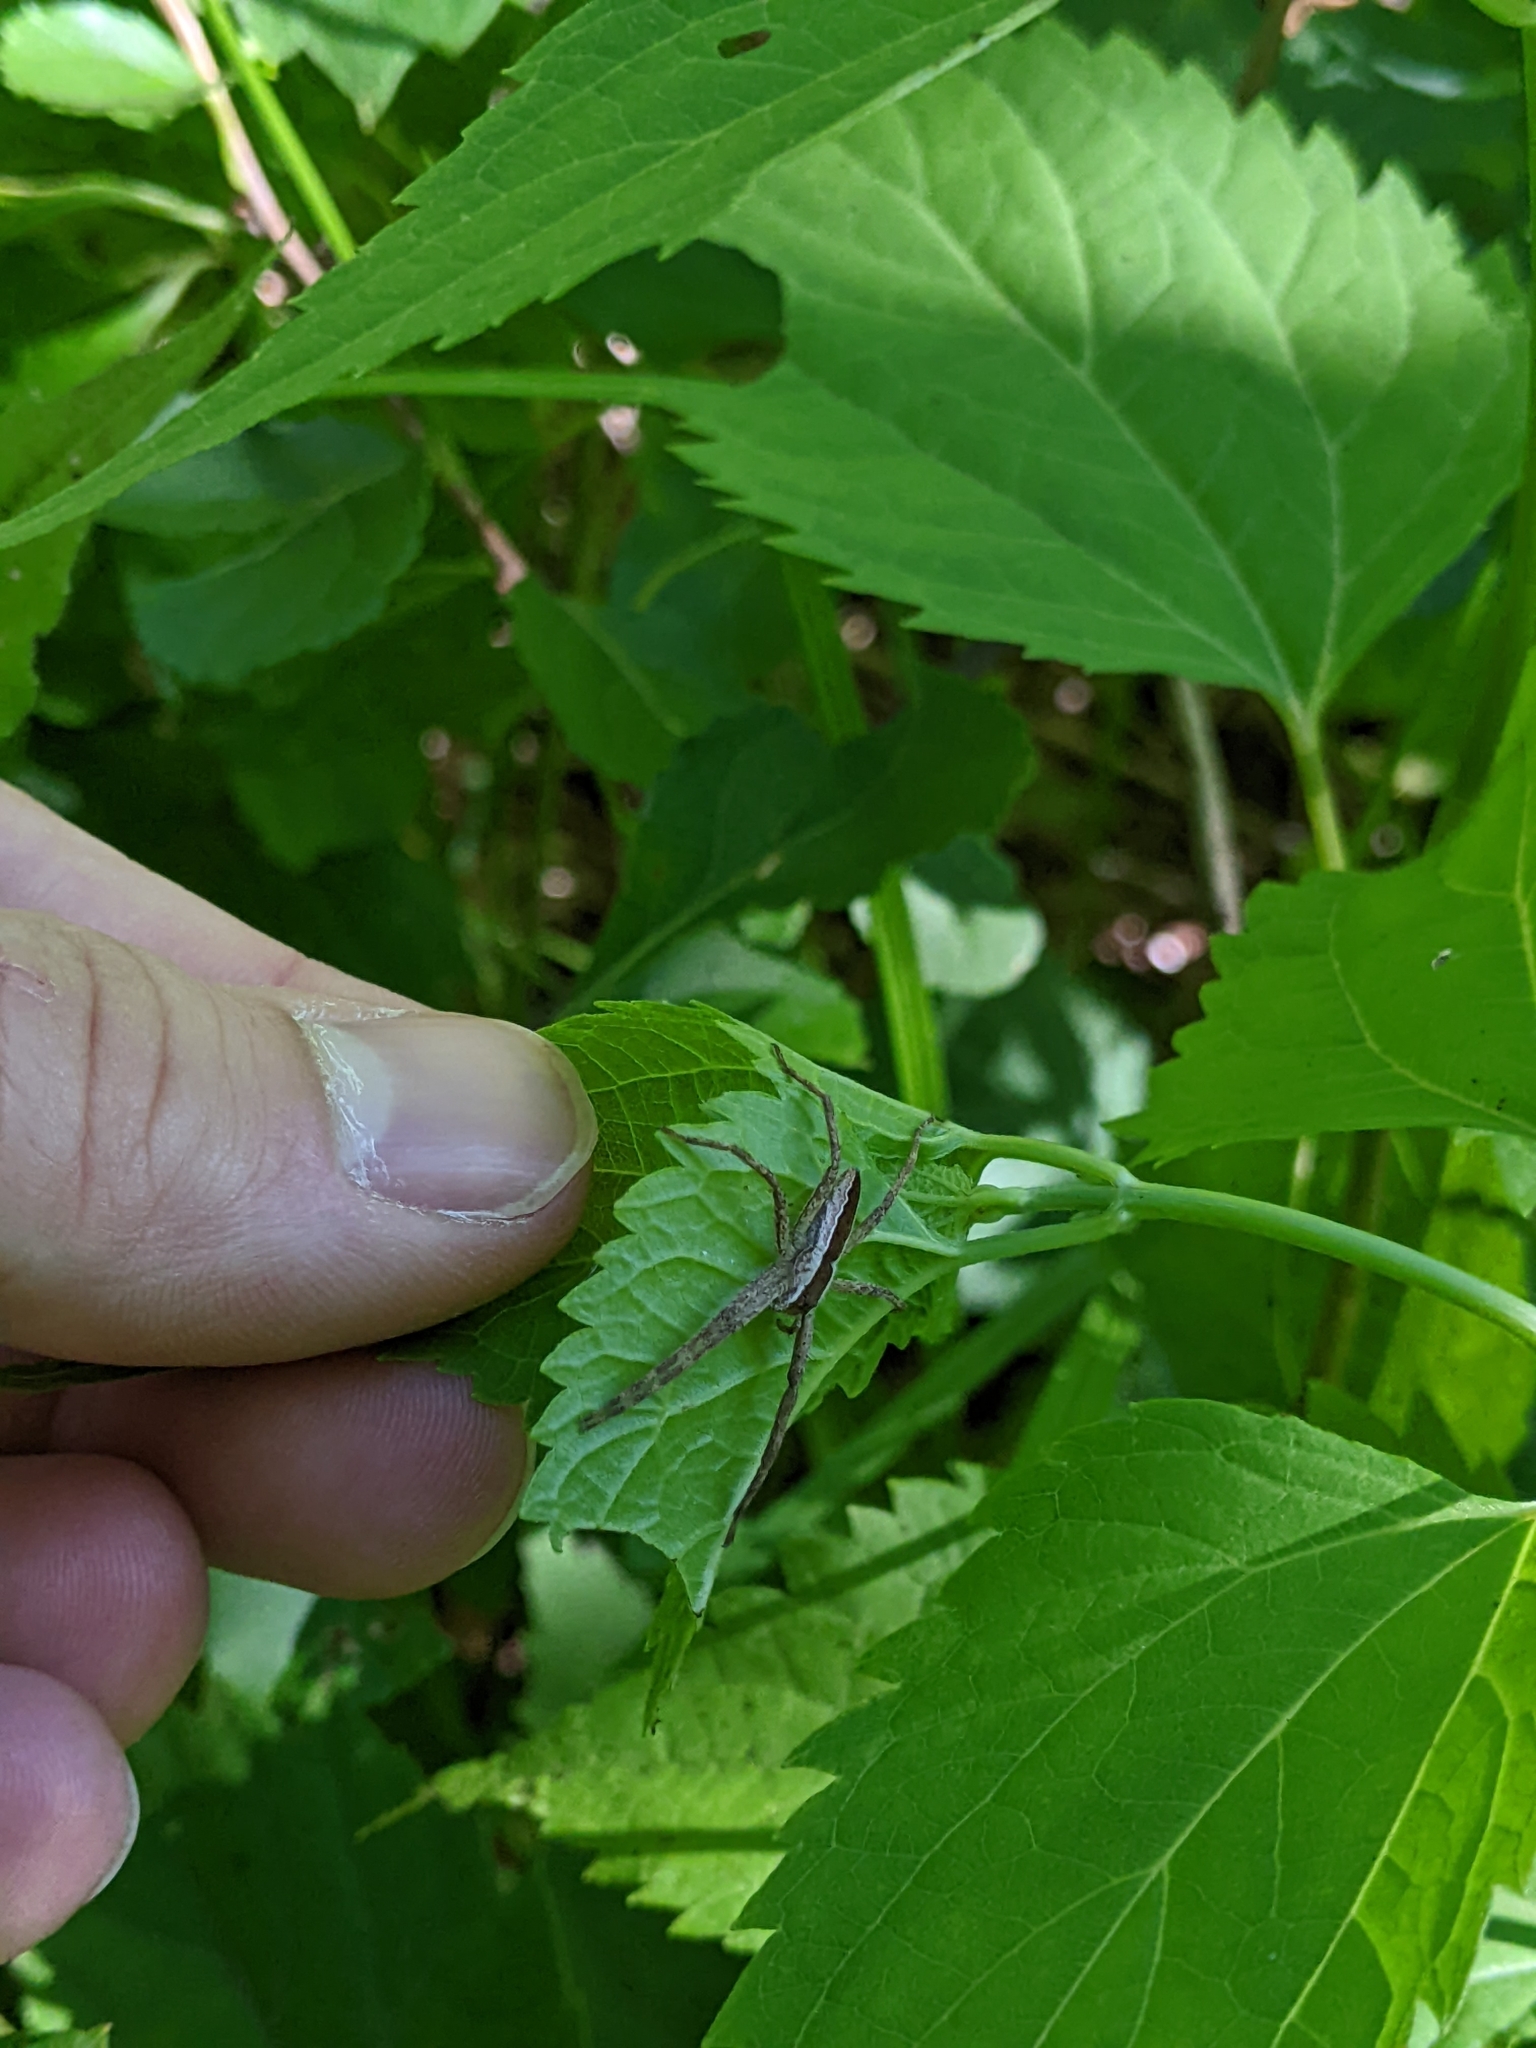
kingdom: Animalia
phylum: Arthropoda
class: Arachnida
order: Araneae
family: Pisauridae
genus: Pisaurina
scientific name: Pisaurina mira
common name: American nursery web spider
